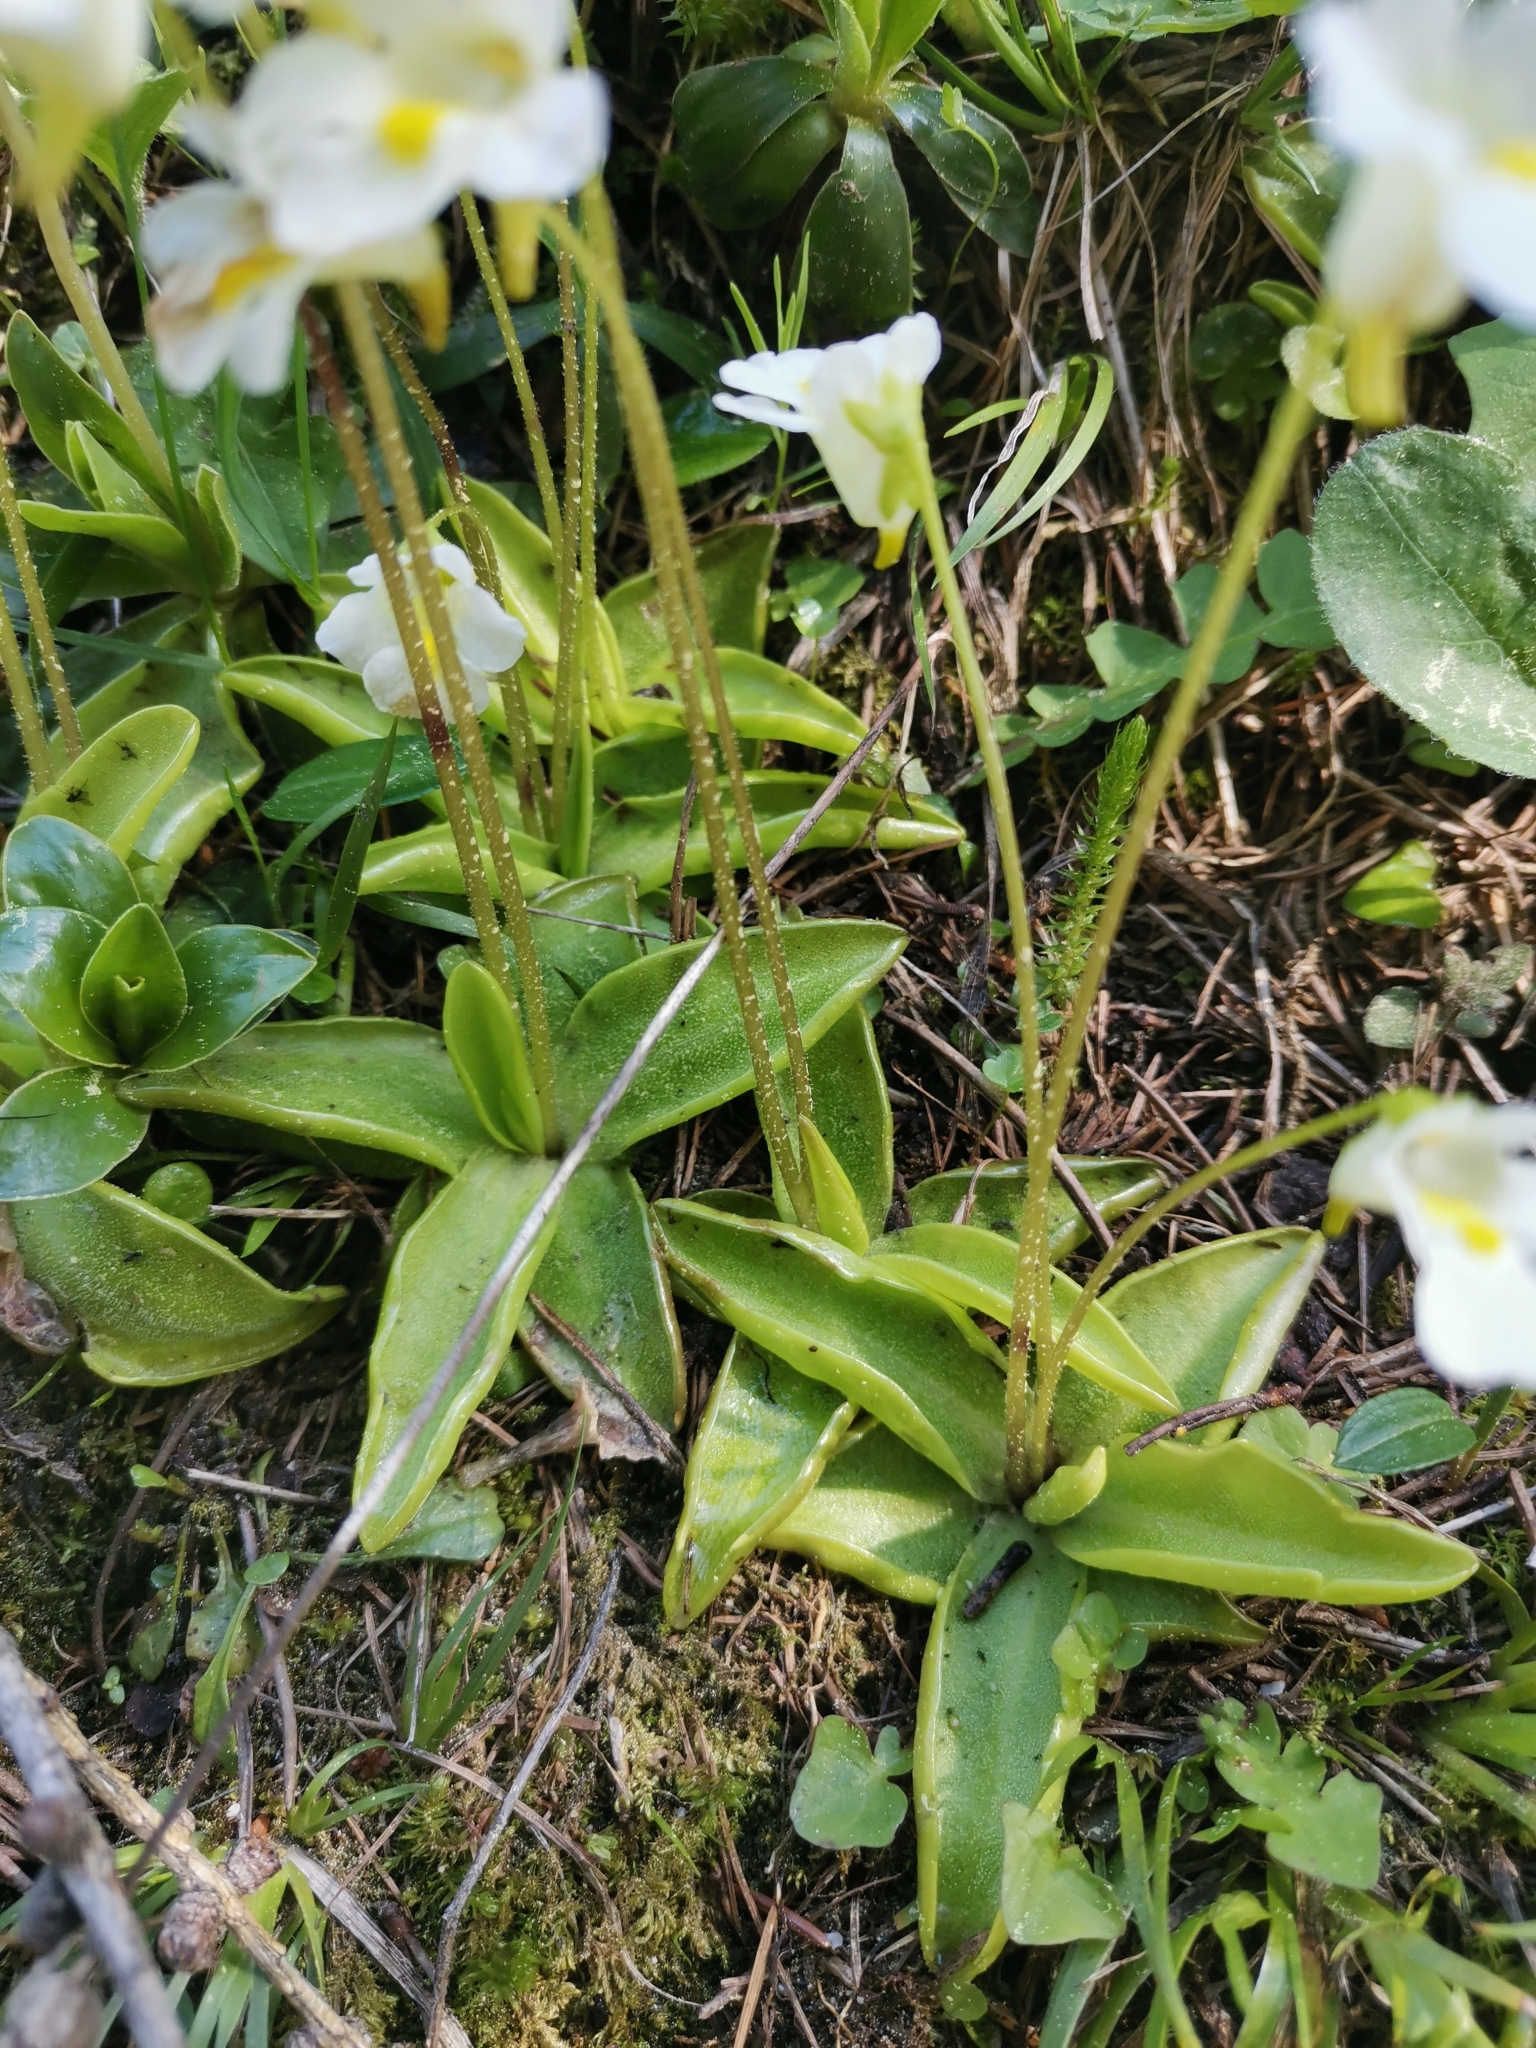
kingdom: Plantae
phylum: Tracheophyta
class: Magnoliopsida
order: Lamiales
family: Lentibulariaceae
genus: Pinguicula
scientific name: Pinguicula alpina
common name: Alpine butterwort
